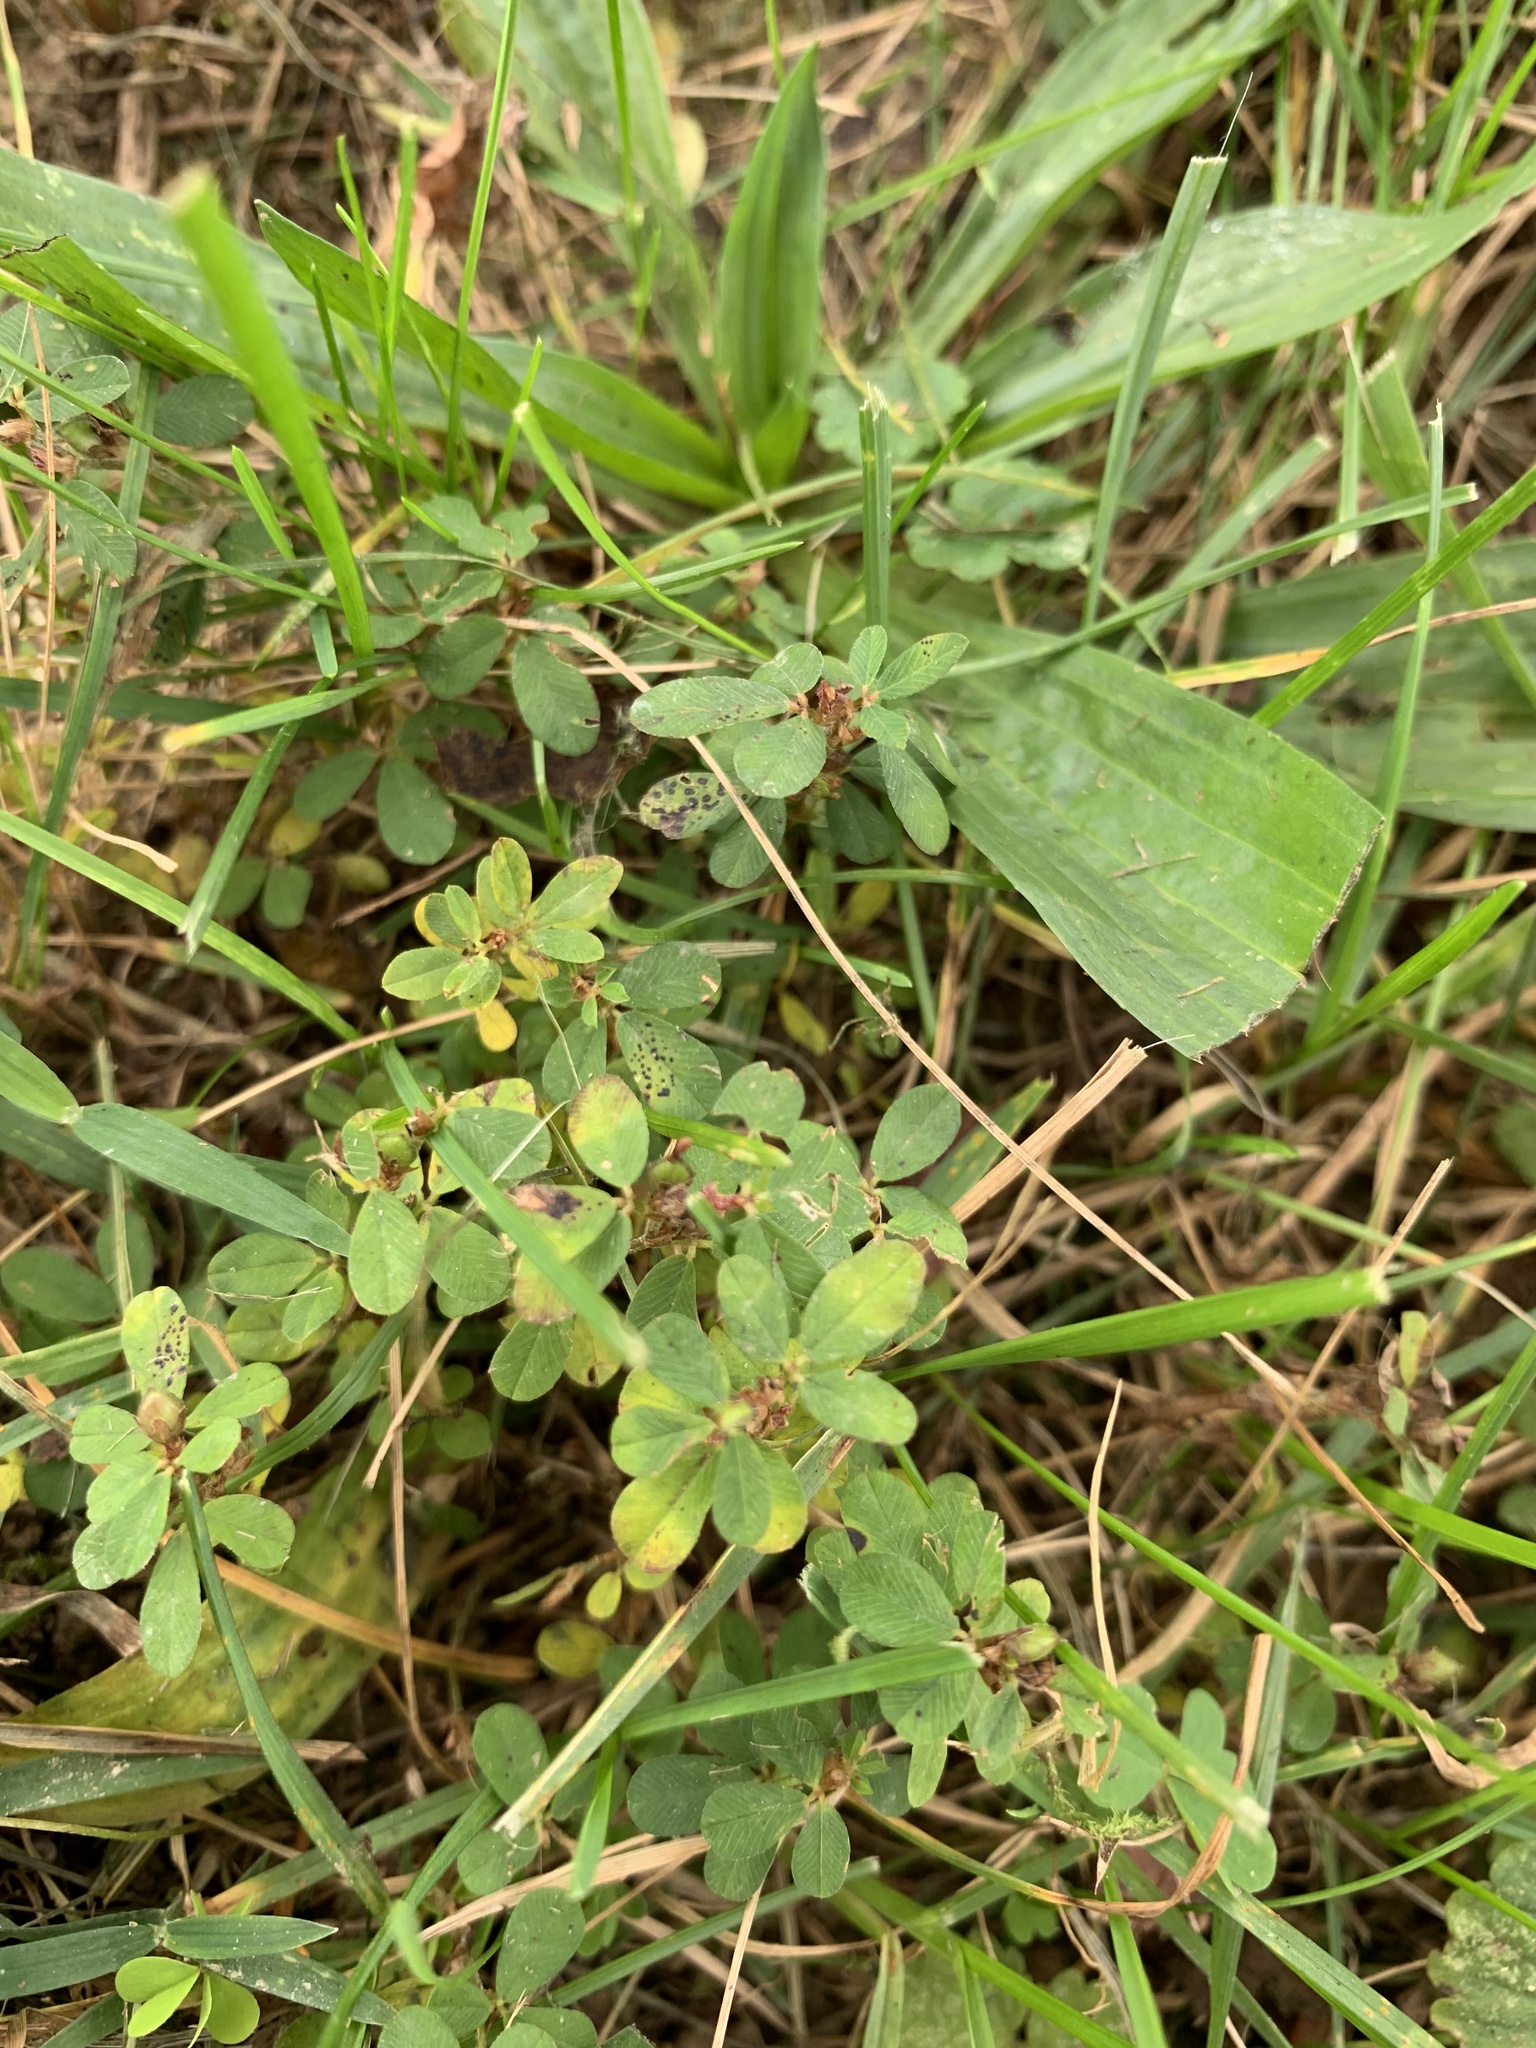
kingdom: Plantae
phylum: Tracheophyta
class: Magnoliopsida
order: Fabales
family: Fabaceae
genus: Kummerowia
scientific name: Kummerowia striata
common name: Japanese clover
